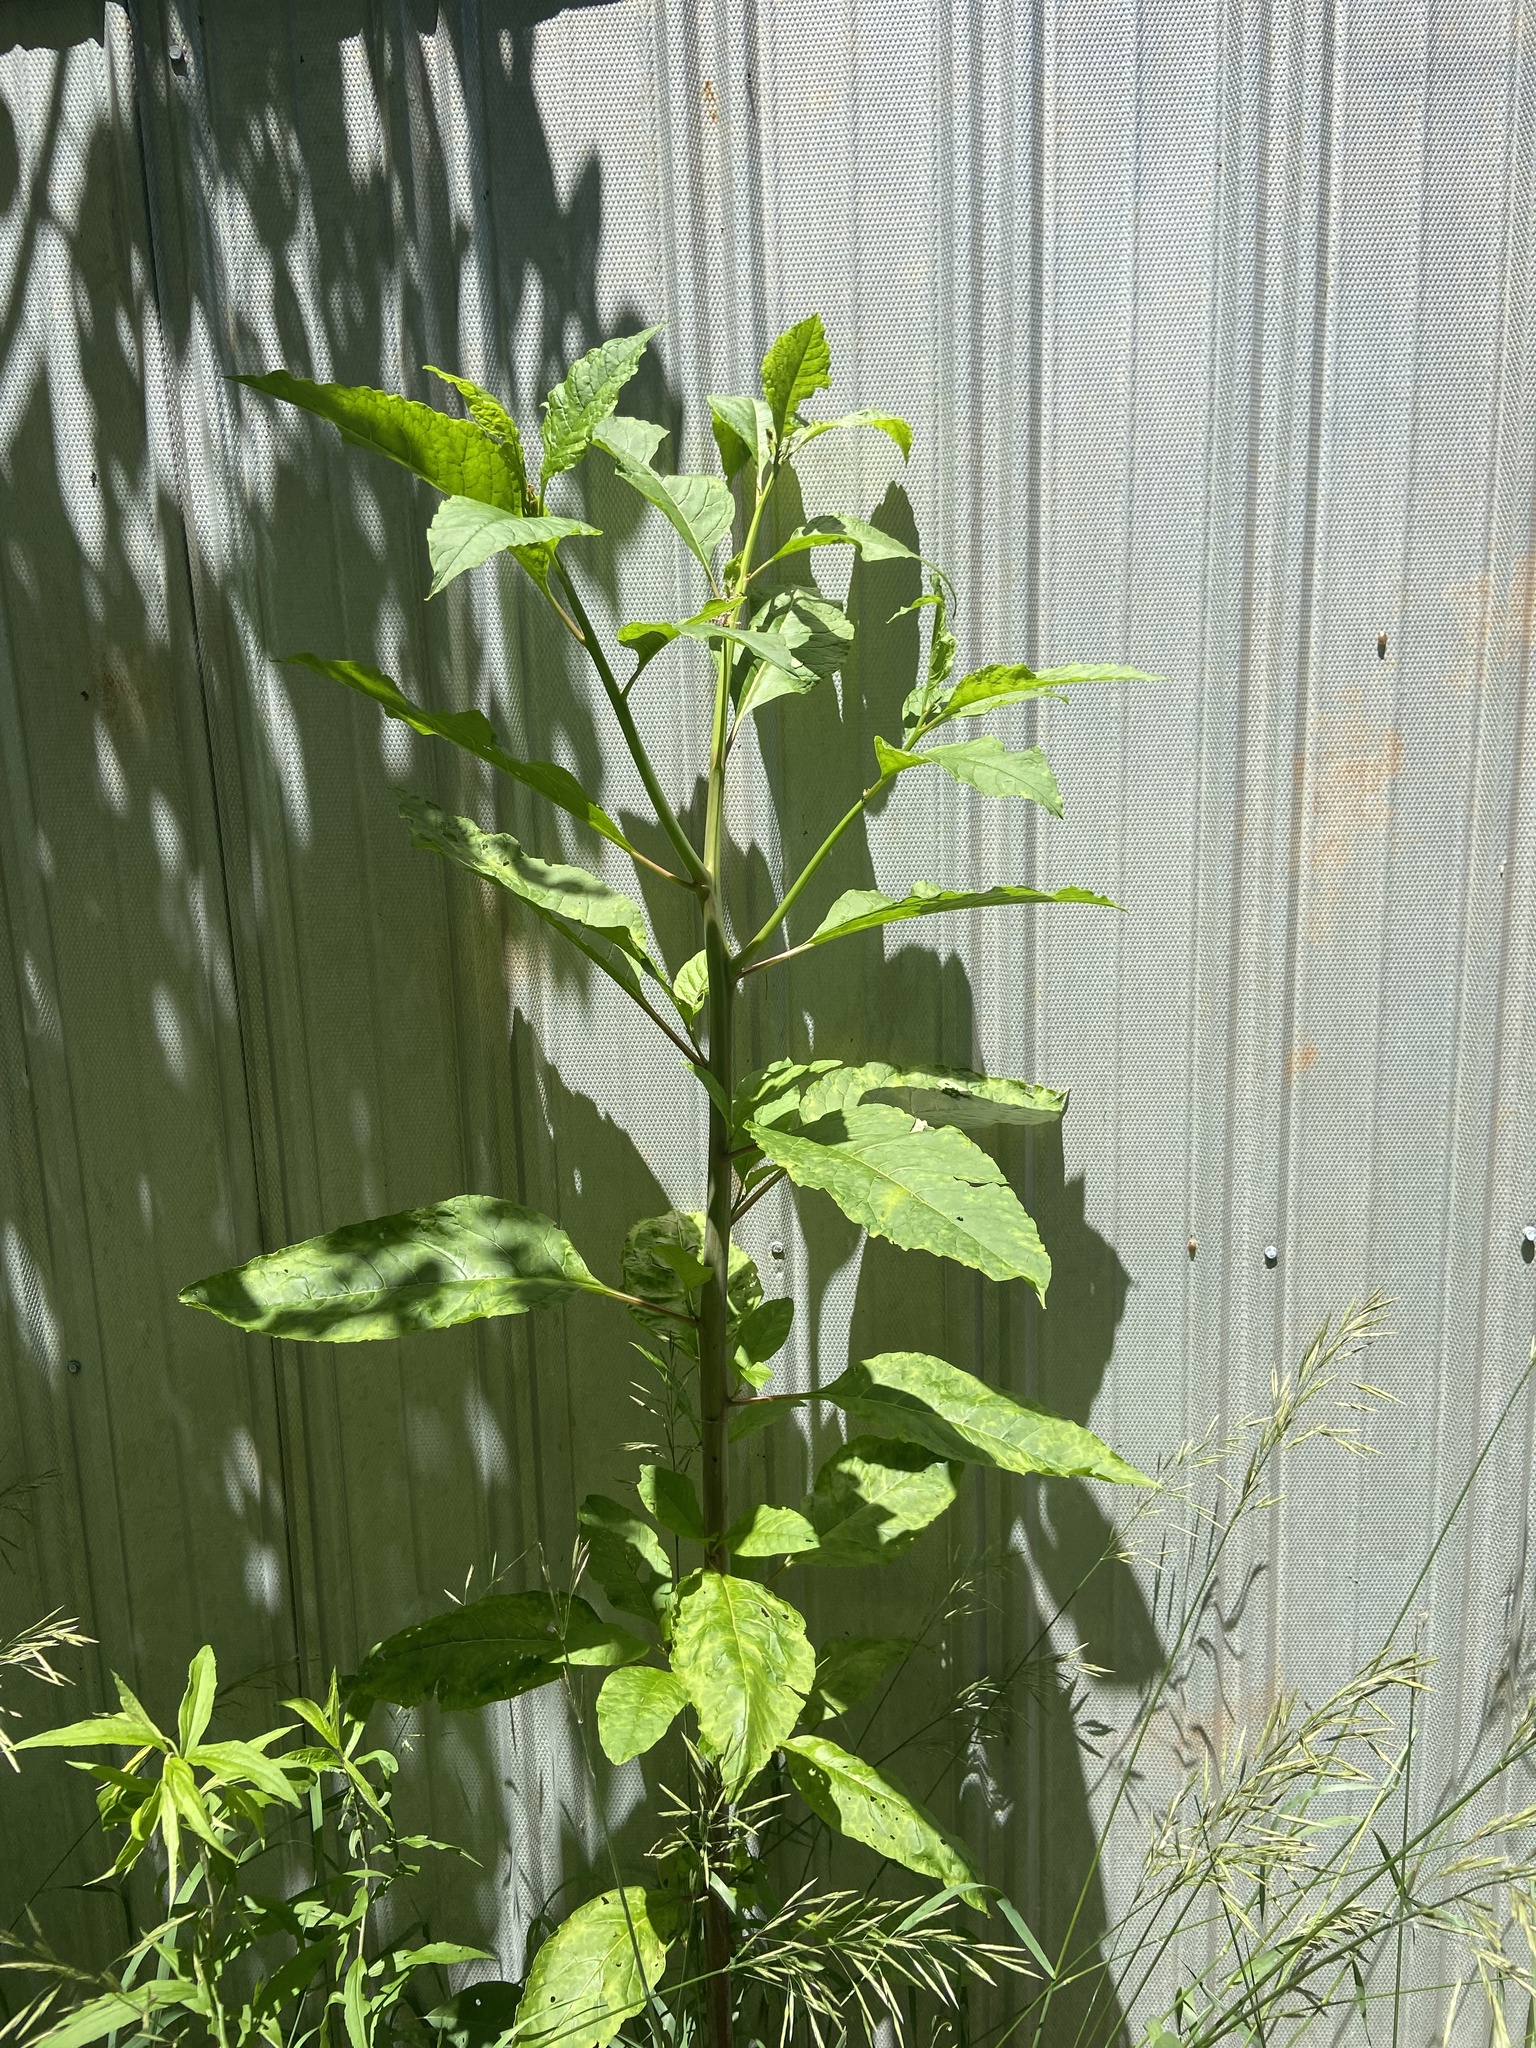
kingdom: Plantae
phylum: Tracheophyta
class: Magnoliopsida
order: Caryophyllales
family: Phytolaccaceae
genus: Phytolacca
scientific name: Phytolacca americana
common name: American pokeweed
